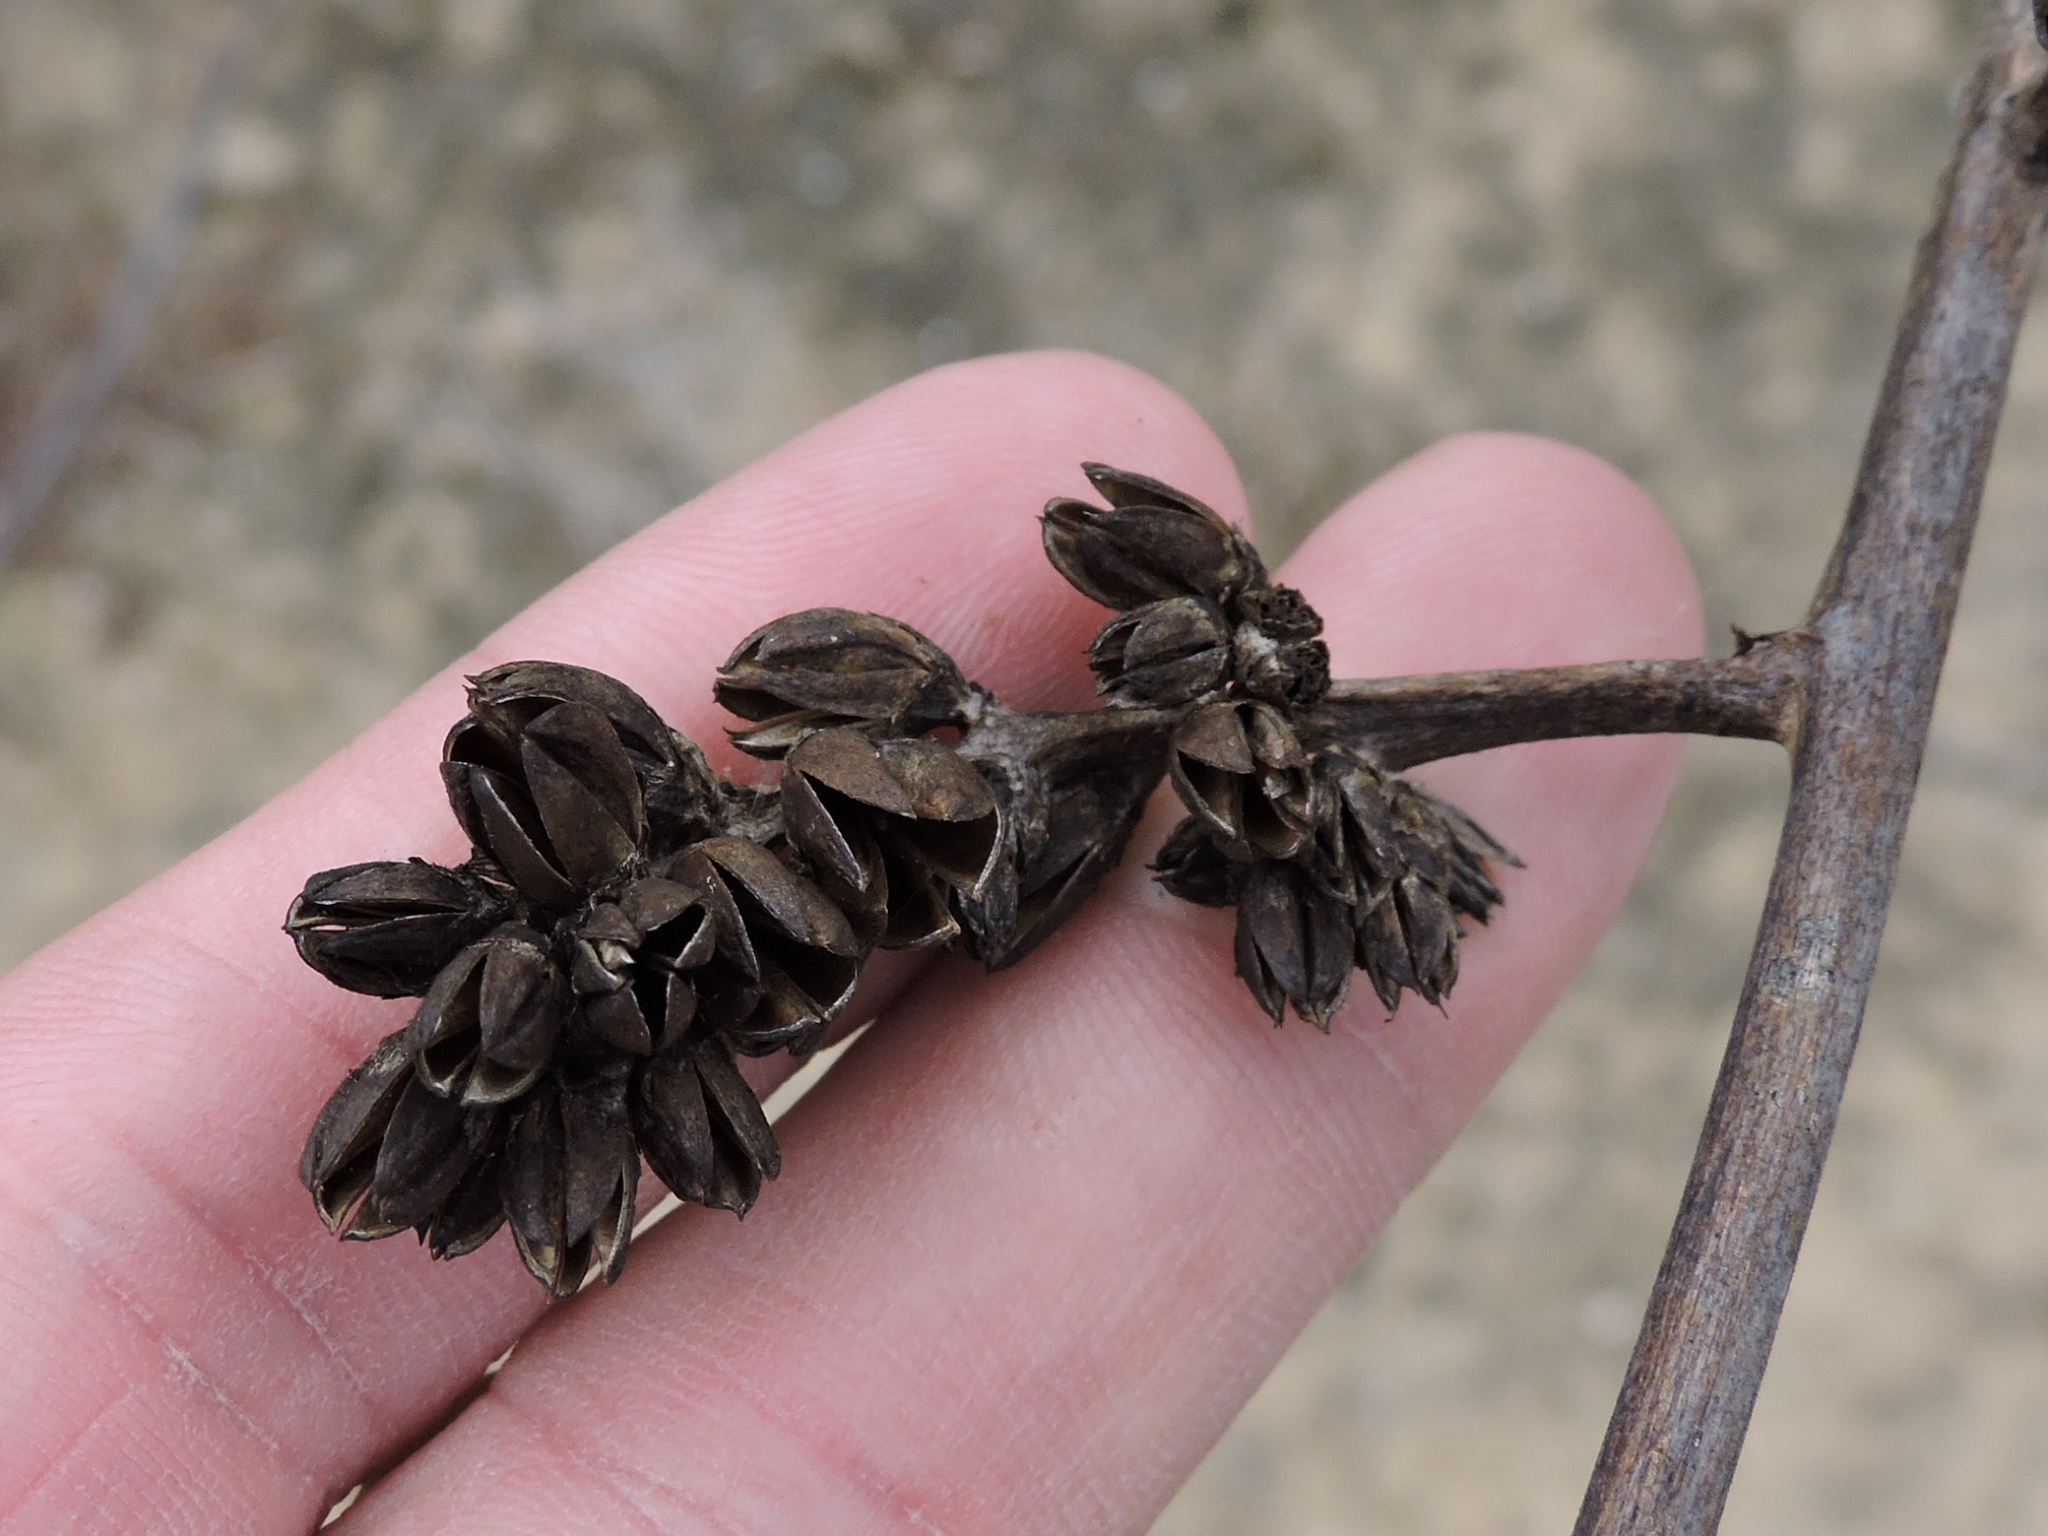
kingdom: Plantae
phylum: Tracheophyta
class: Liliopsida
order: Poales
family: Bromeliaceae
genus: Hechtia
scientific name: Hechtia glomerata
